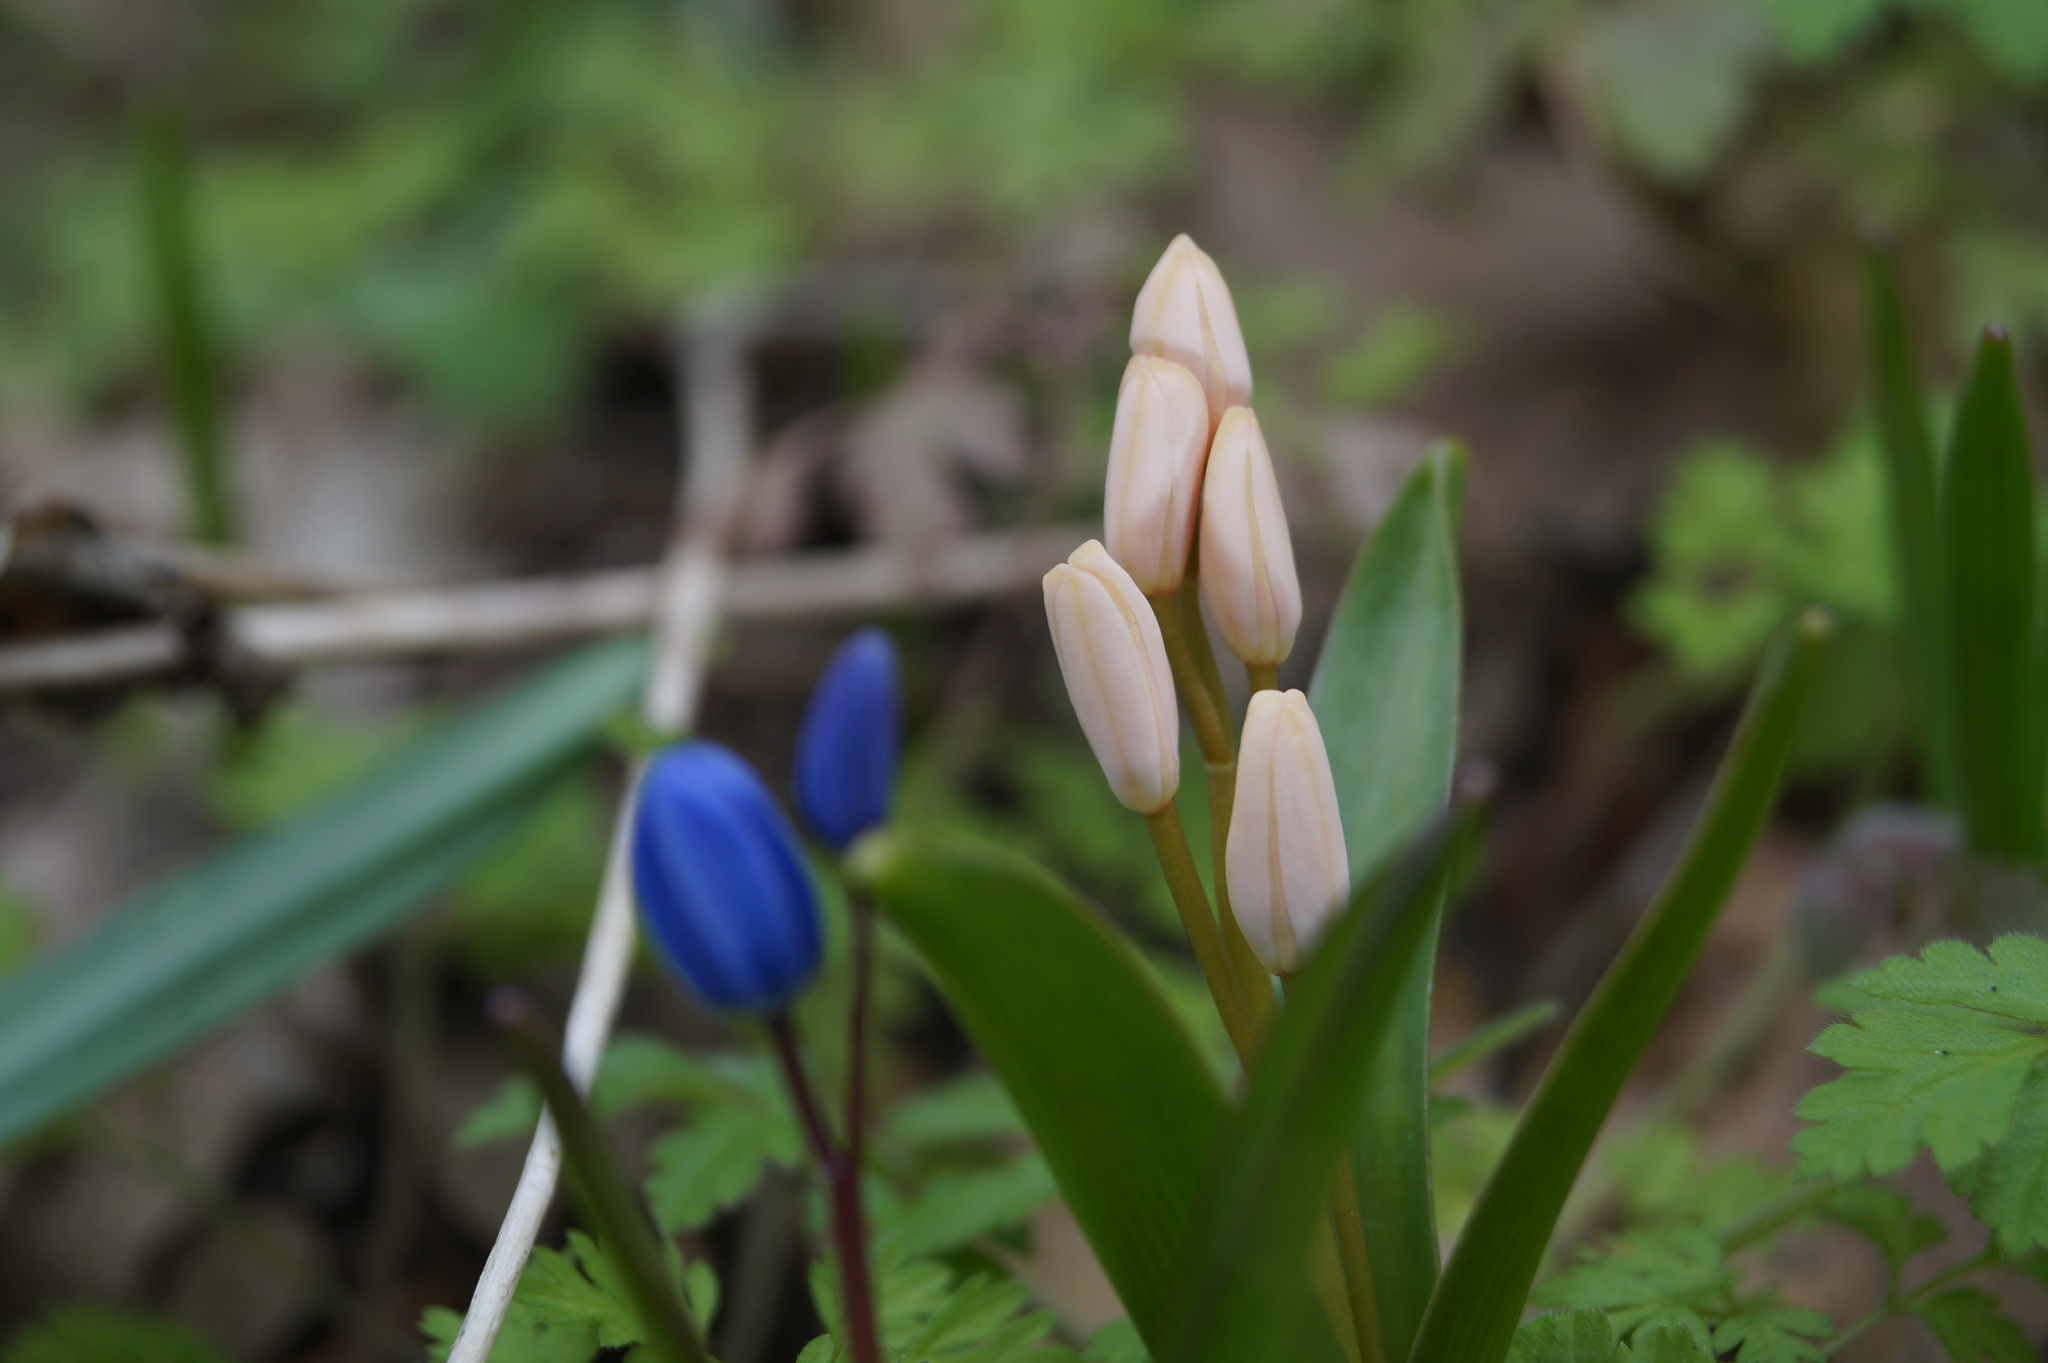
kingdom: Plantae
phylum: Tracheophyta
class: Liliopsida
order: Asparagales
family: Asparagaceae
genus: Scilla
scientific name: Scilla bifolia
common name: Alpine squill
